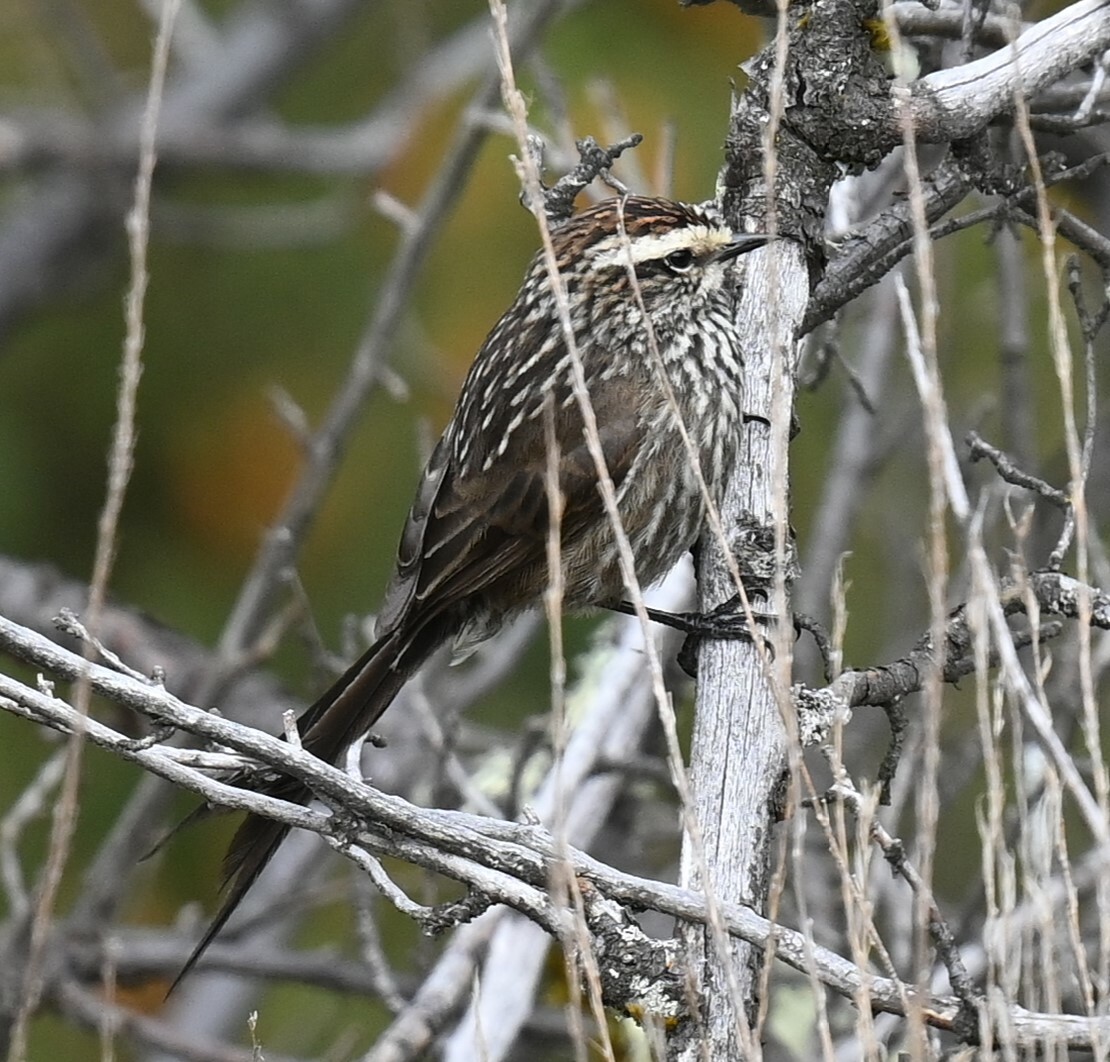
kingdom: Animalia
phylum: Chordata
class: Aves
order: Passeriformes
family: Furnariidae
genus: Leptasthenura
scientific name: Leptasthenura andicola
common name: Andean tit-spinetail
